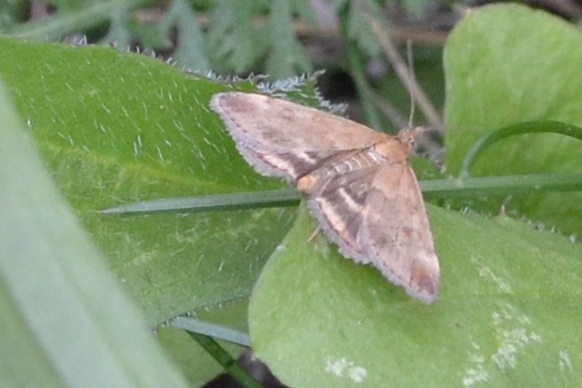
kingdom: Animalia
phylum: Arthropoda
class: Insecta
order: Lepidoptera
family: Crambidae
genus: Pyrausta
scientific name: Pyrausta despicata
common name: Straw-barred pearl
